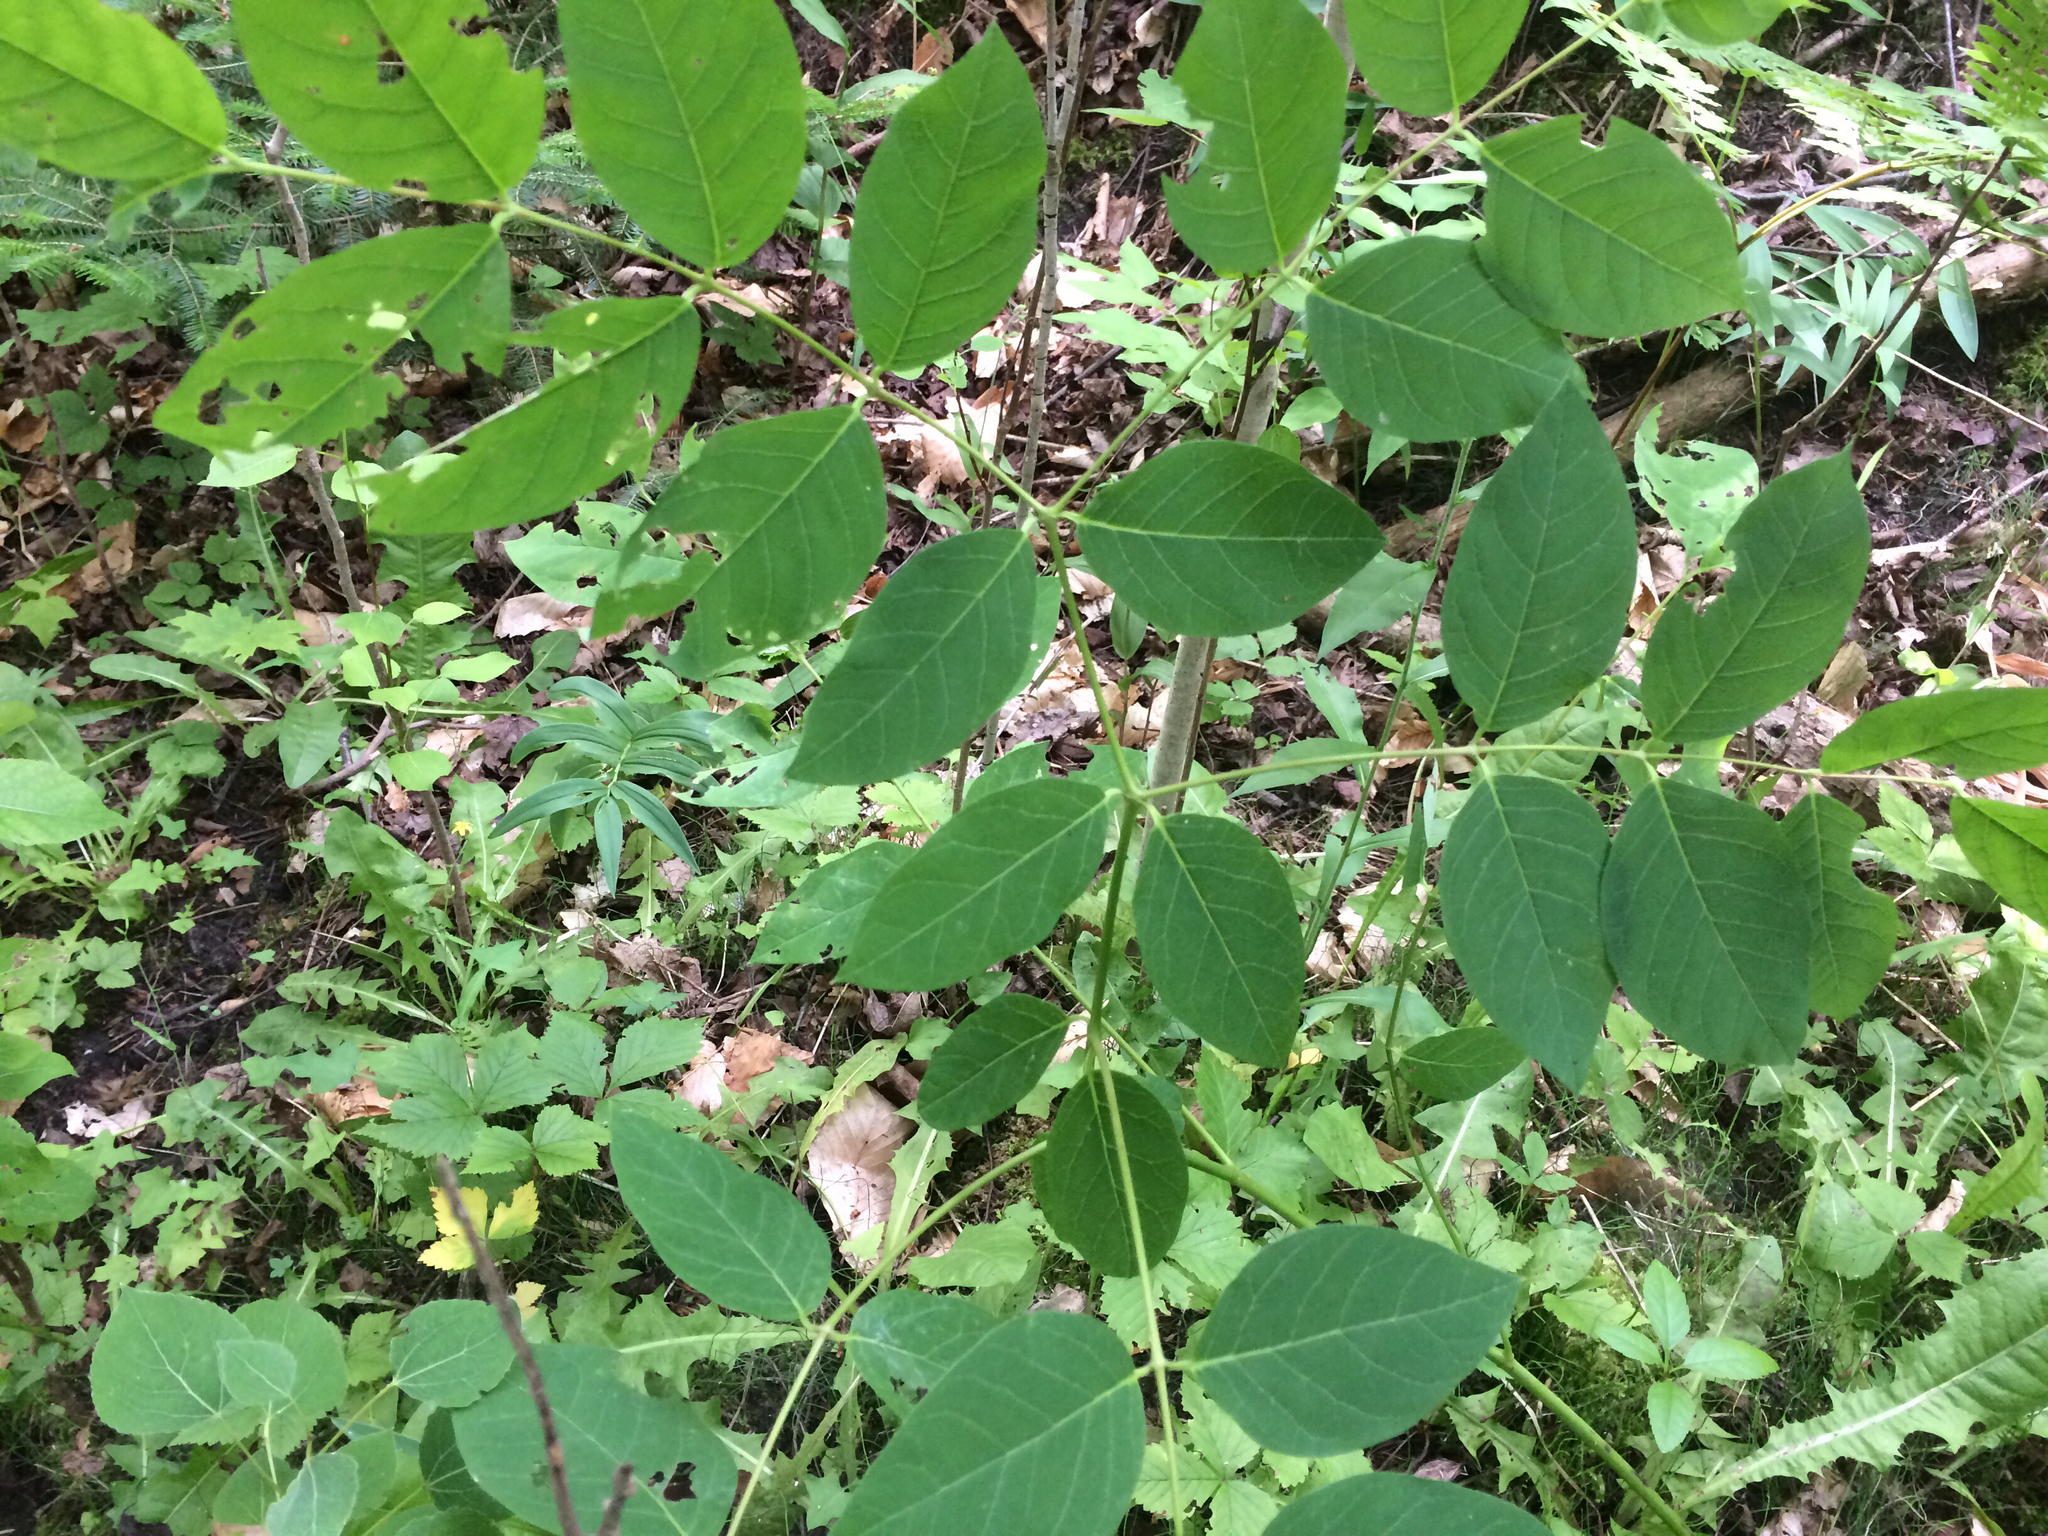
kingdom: Plantae
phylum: Tracheophyta
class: Magnoliopsida
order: Gentianales
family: Apocynaceae
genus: Apocynum
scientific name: Apocynum androsaemifolium
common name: Spreading dogbane
